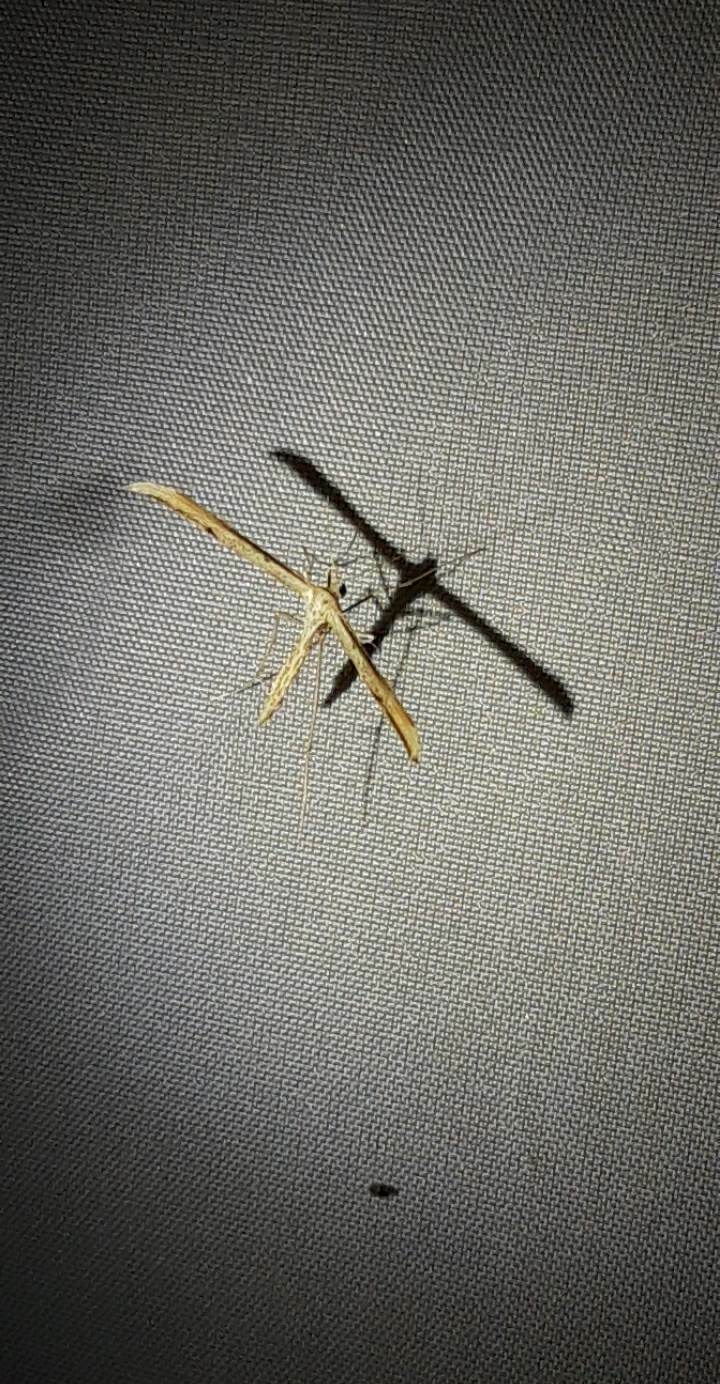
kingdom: Animalia
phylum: Arthropoda
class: Insecta
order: Lepidoptera
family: Pterophoridae
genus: Emmelina
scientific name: Emmelina monodactyla
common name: Common plume
